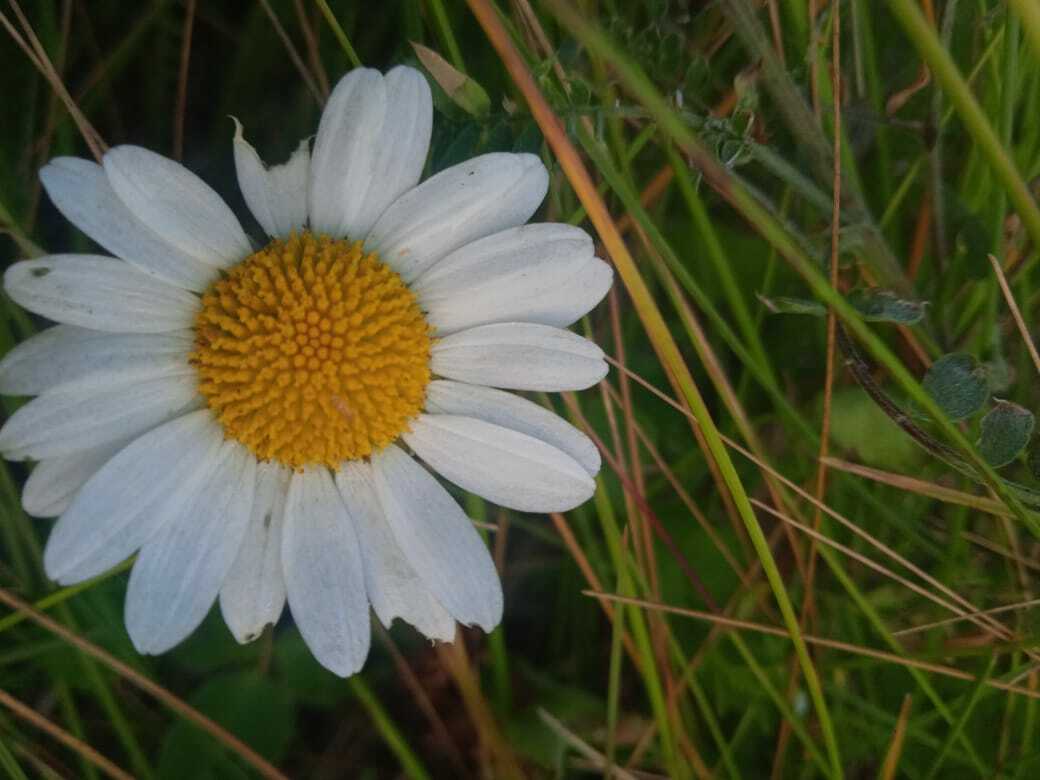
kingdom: Plantae
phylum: Tracheophyta
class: Magnoliopsida
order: Asterales
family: Asteraceae
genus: Leucanthemum
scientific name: Leucanthemum vulgare
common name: Oxeye daisy
